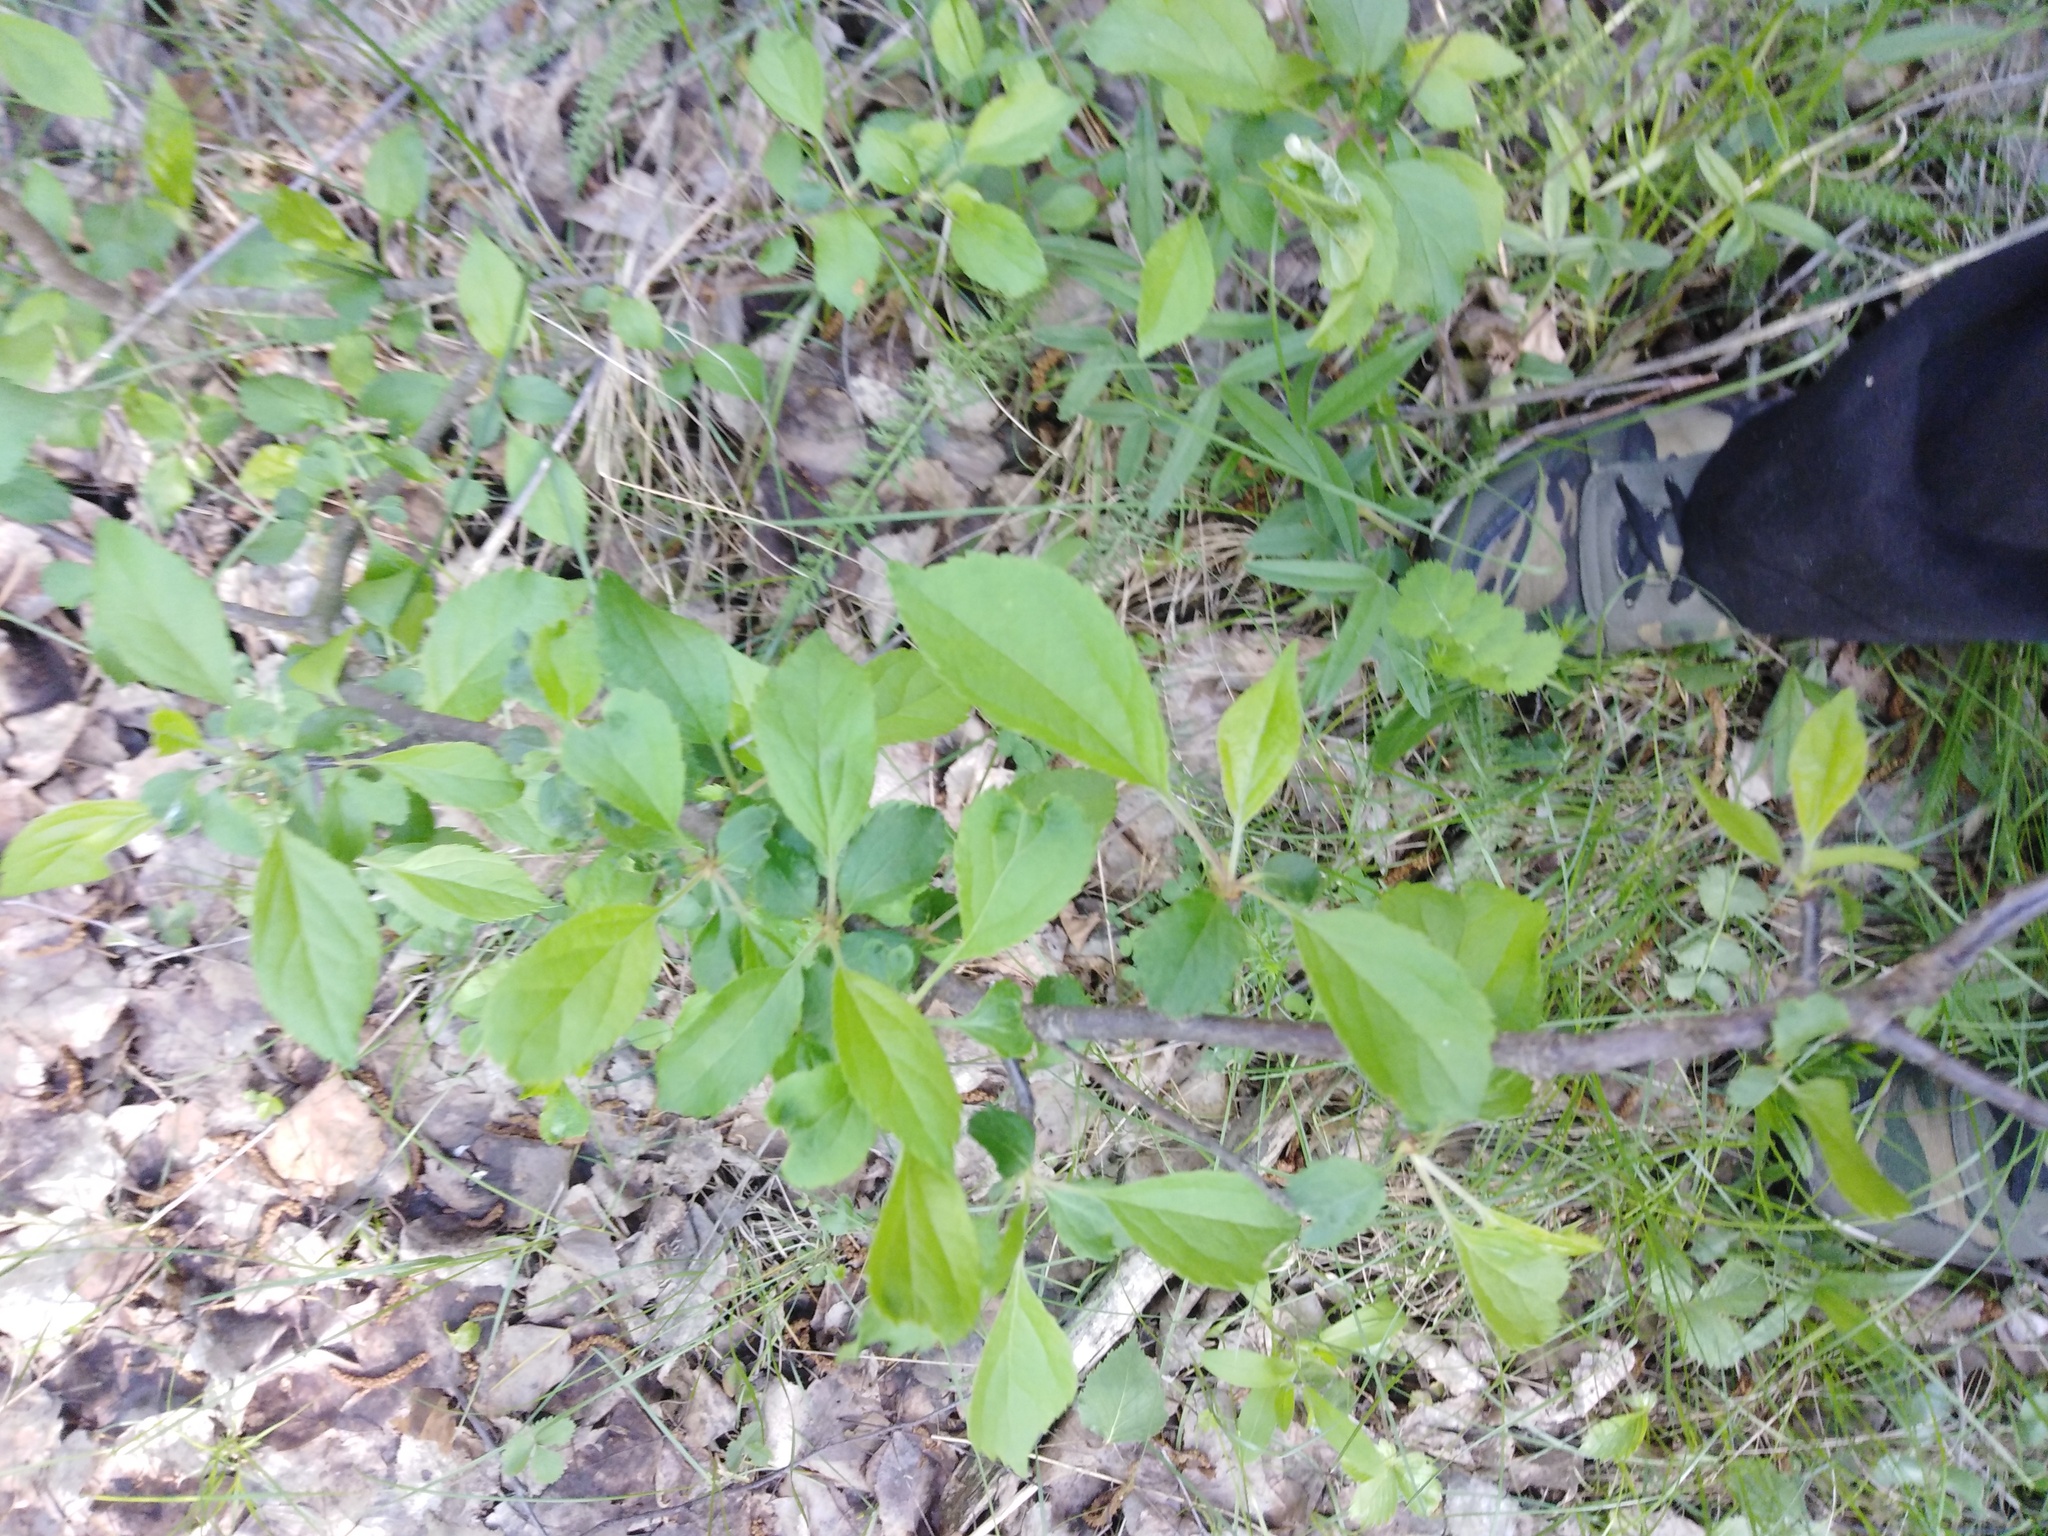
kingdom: Plantae
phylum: Tracheophyta
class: Magnoliopsida
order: Rosales
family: Rhamnaceae
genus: Rhamnus
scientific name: Rhamnus cathartica
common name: Common buckthorn
